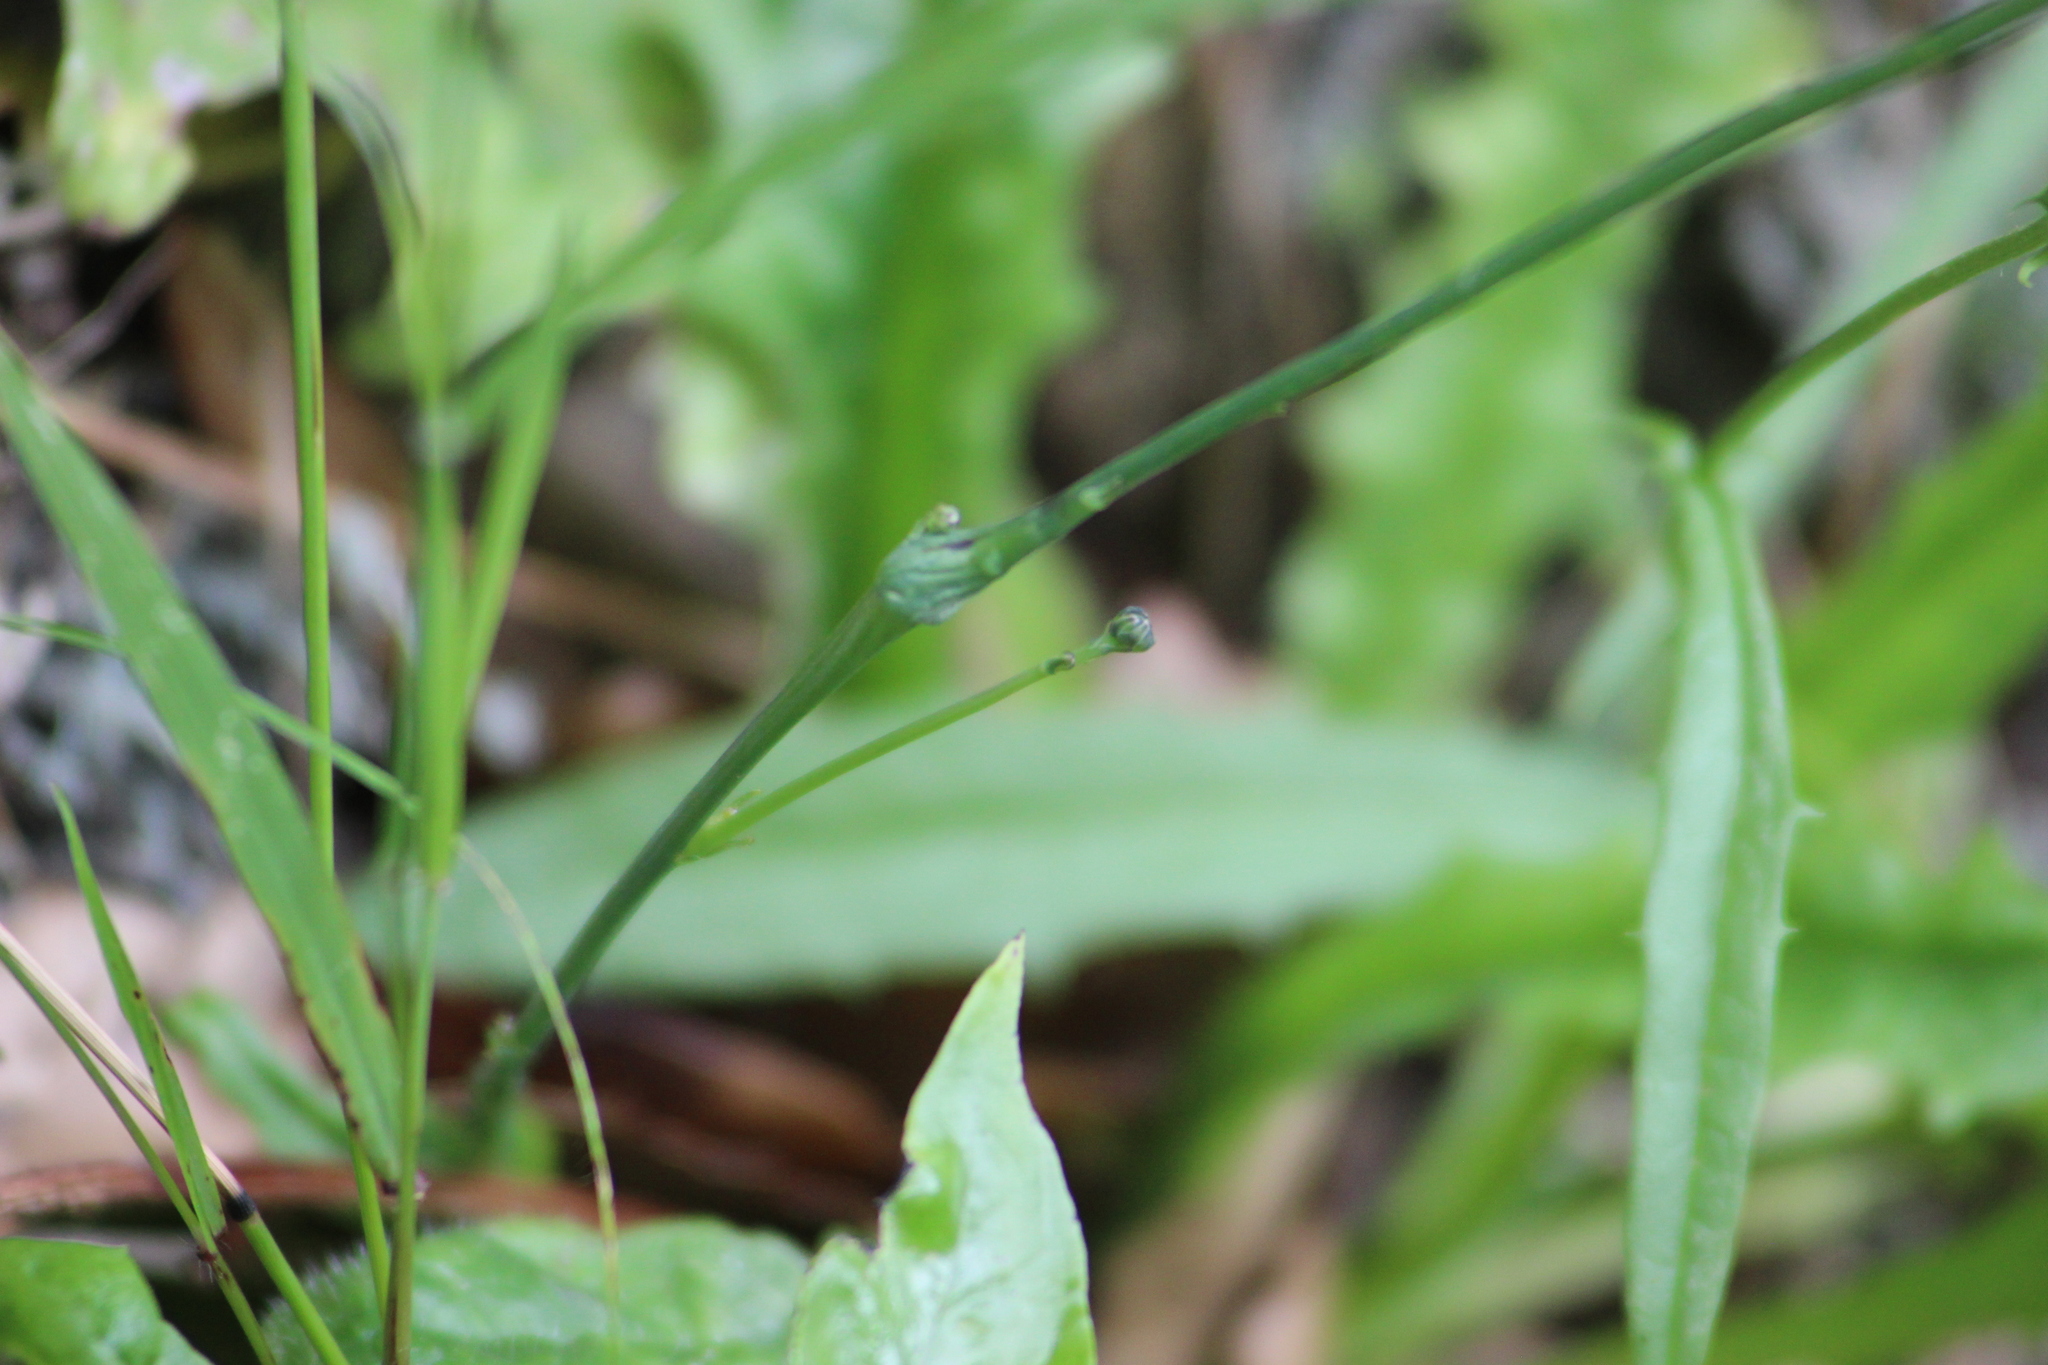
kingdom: Animalia
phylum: Arthropoda
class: Insecta
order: Hymenoptera
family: Cynipidae
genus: Phanacis
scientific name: Phanacis hypochoeridis
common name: Gall wasp
